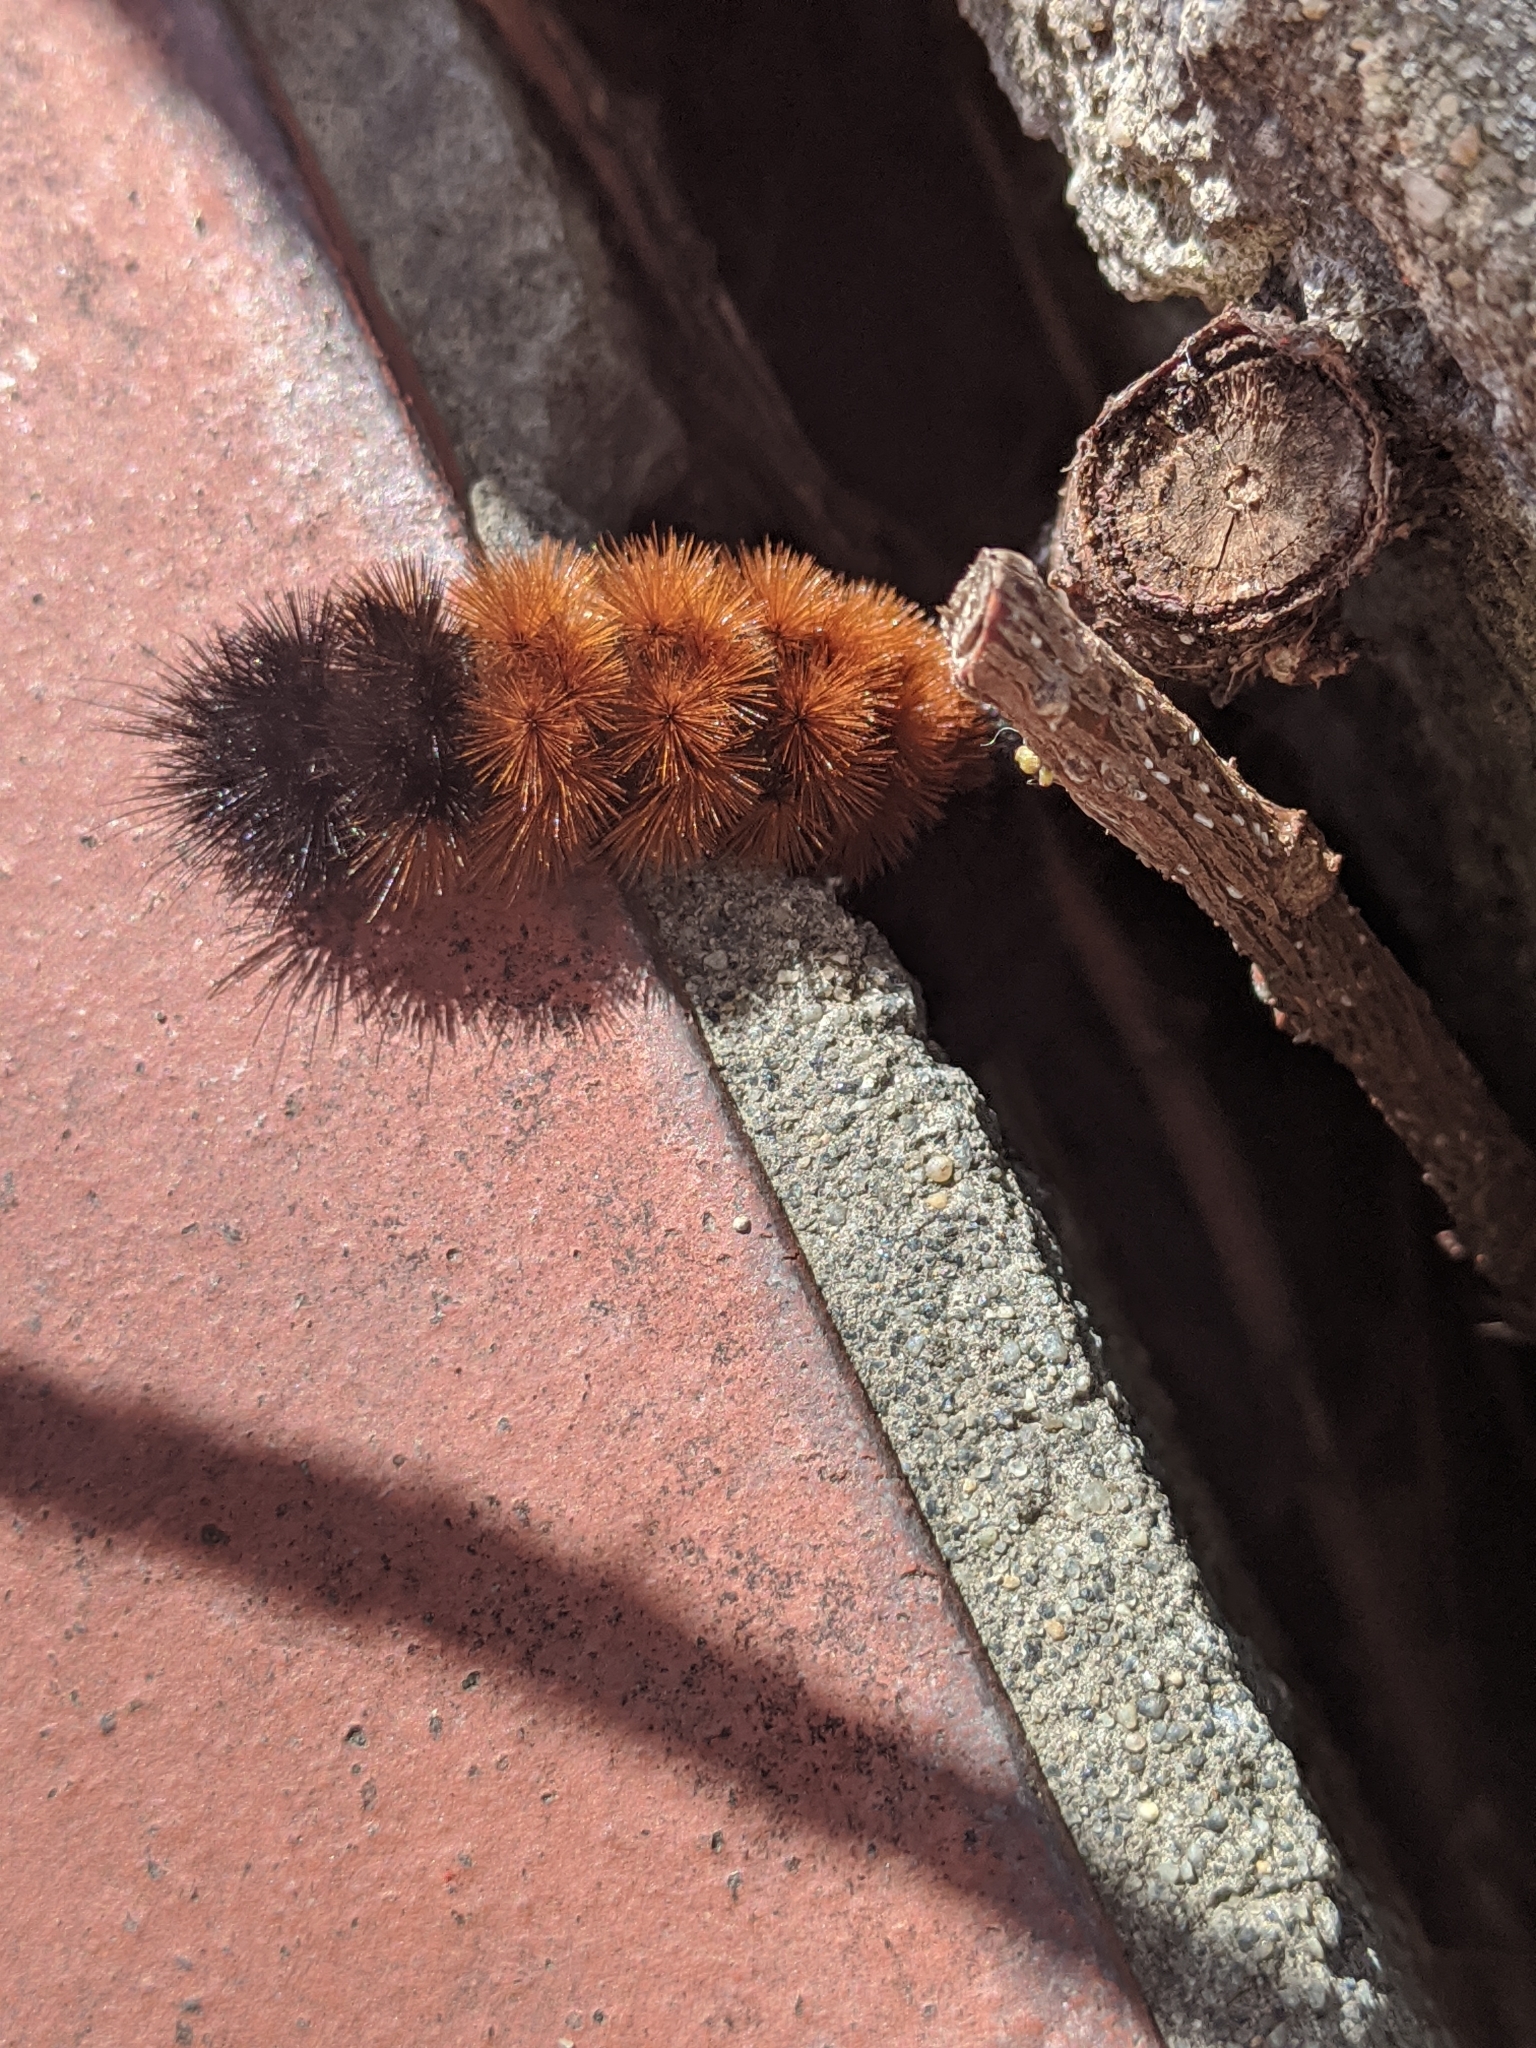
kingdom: Animalia
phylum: Arthropoda
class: Insecta
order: Lepidoptera
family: Erebidae
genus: Pyrrharctia
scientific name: Pyrrharctia isabella
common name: Isabella tiger moth
